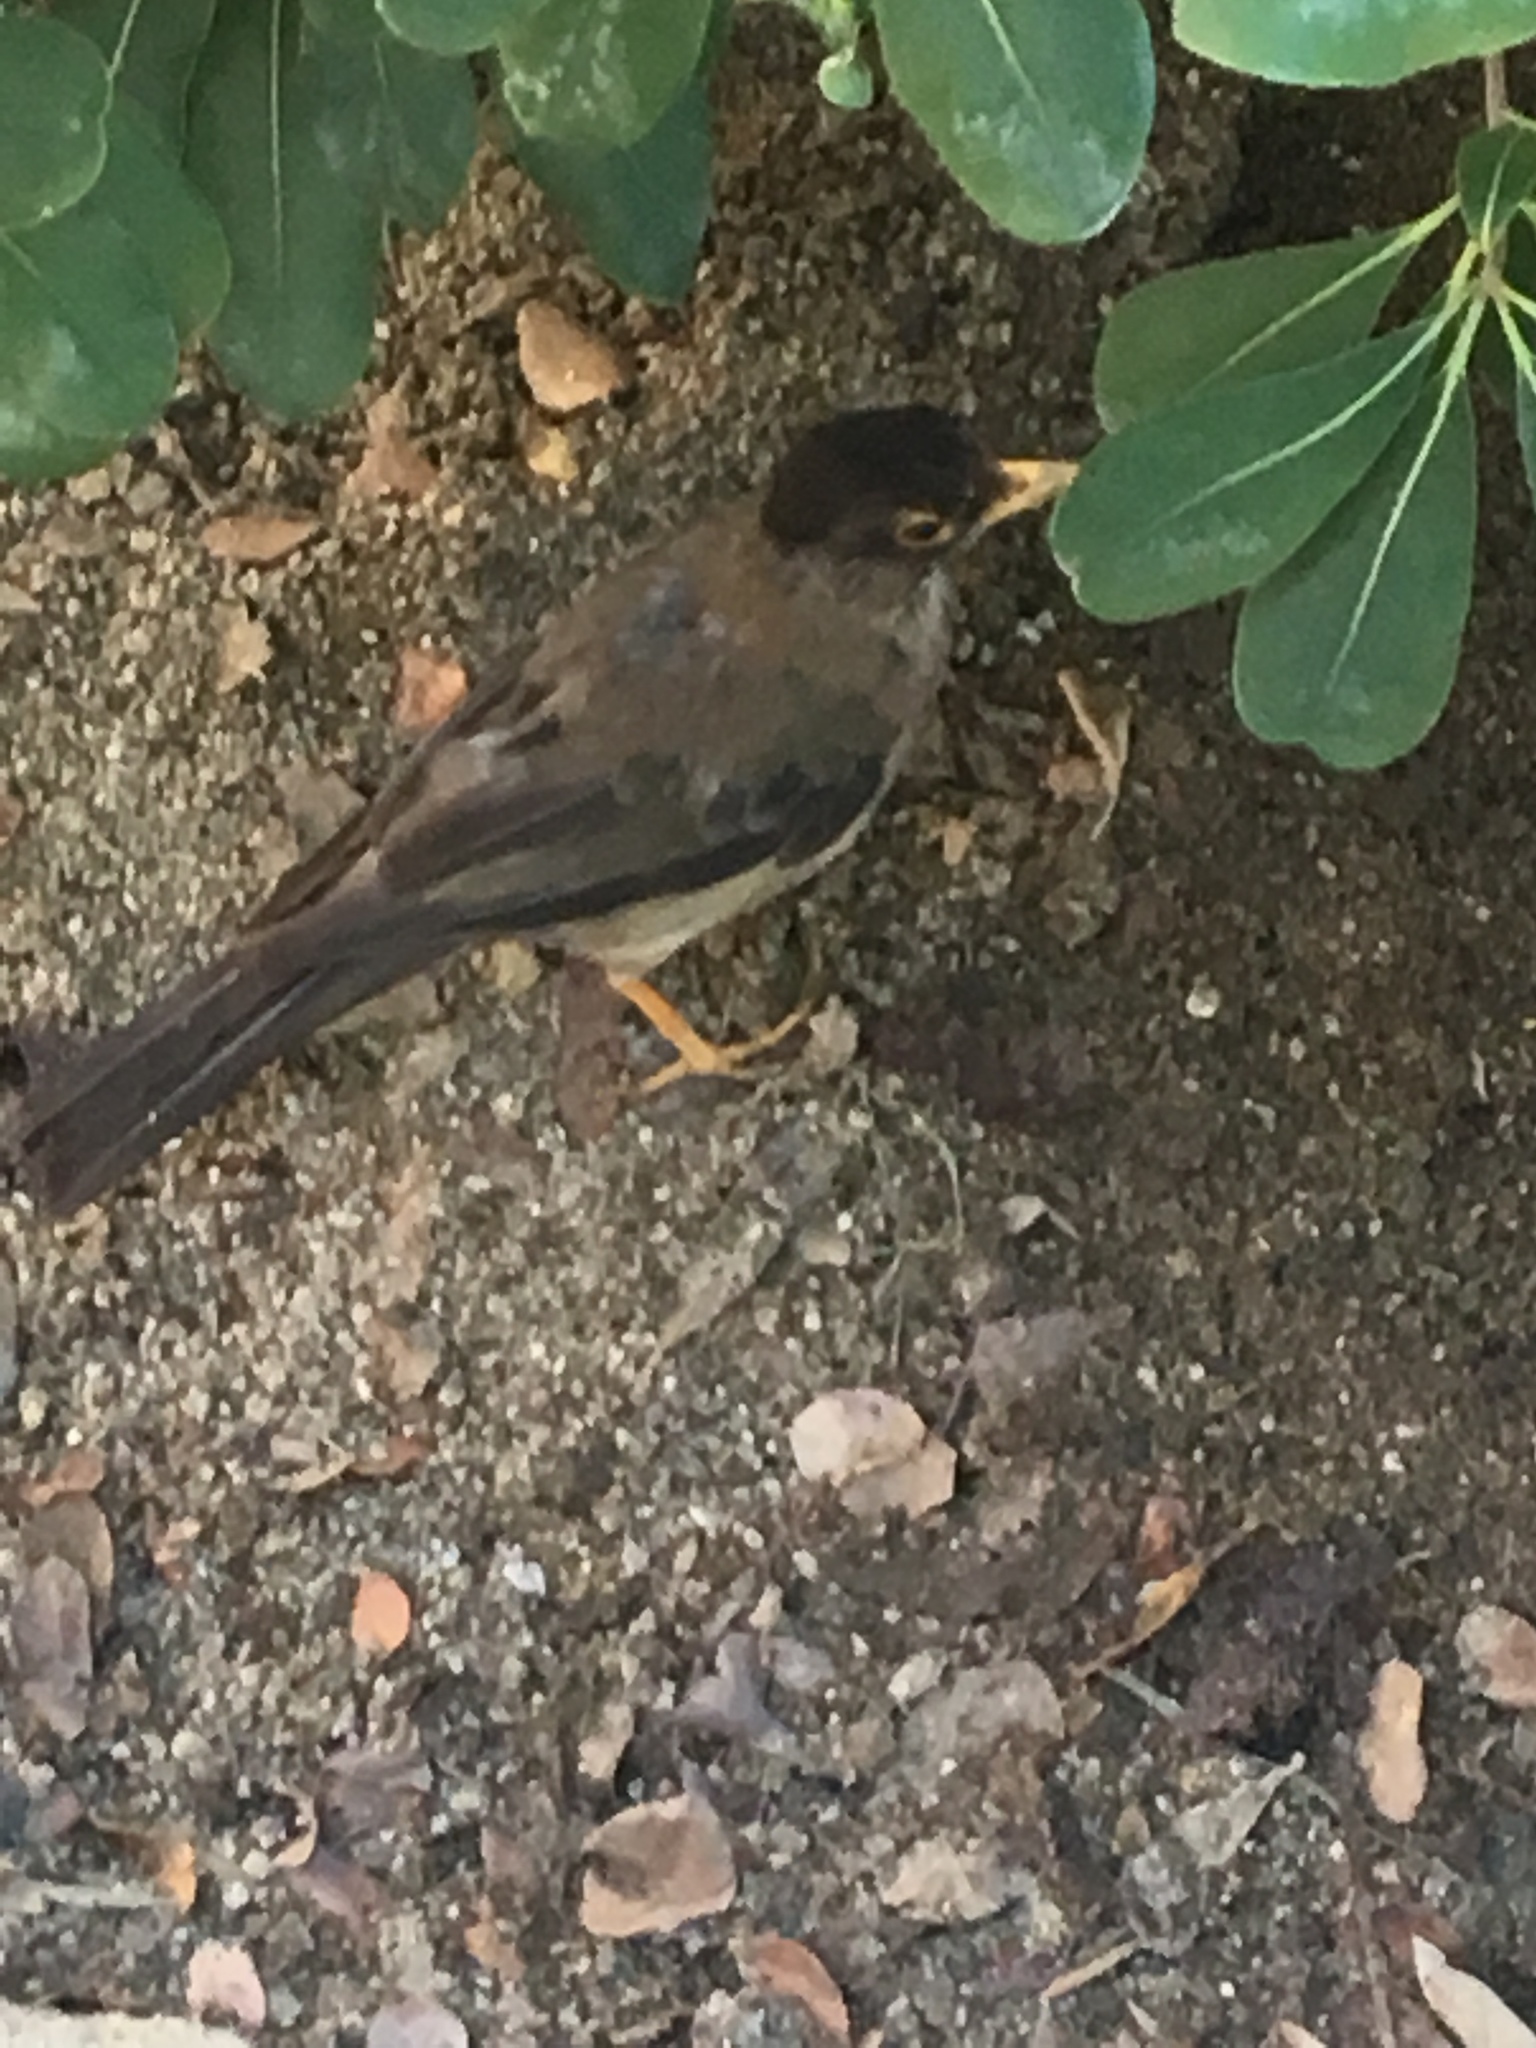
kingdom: Animalia
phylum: Chordata
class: Aves
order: Passeriformes
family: Turdidae
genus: Turdus
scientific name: Turdus falcklandii
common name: Austral thrush
